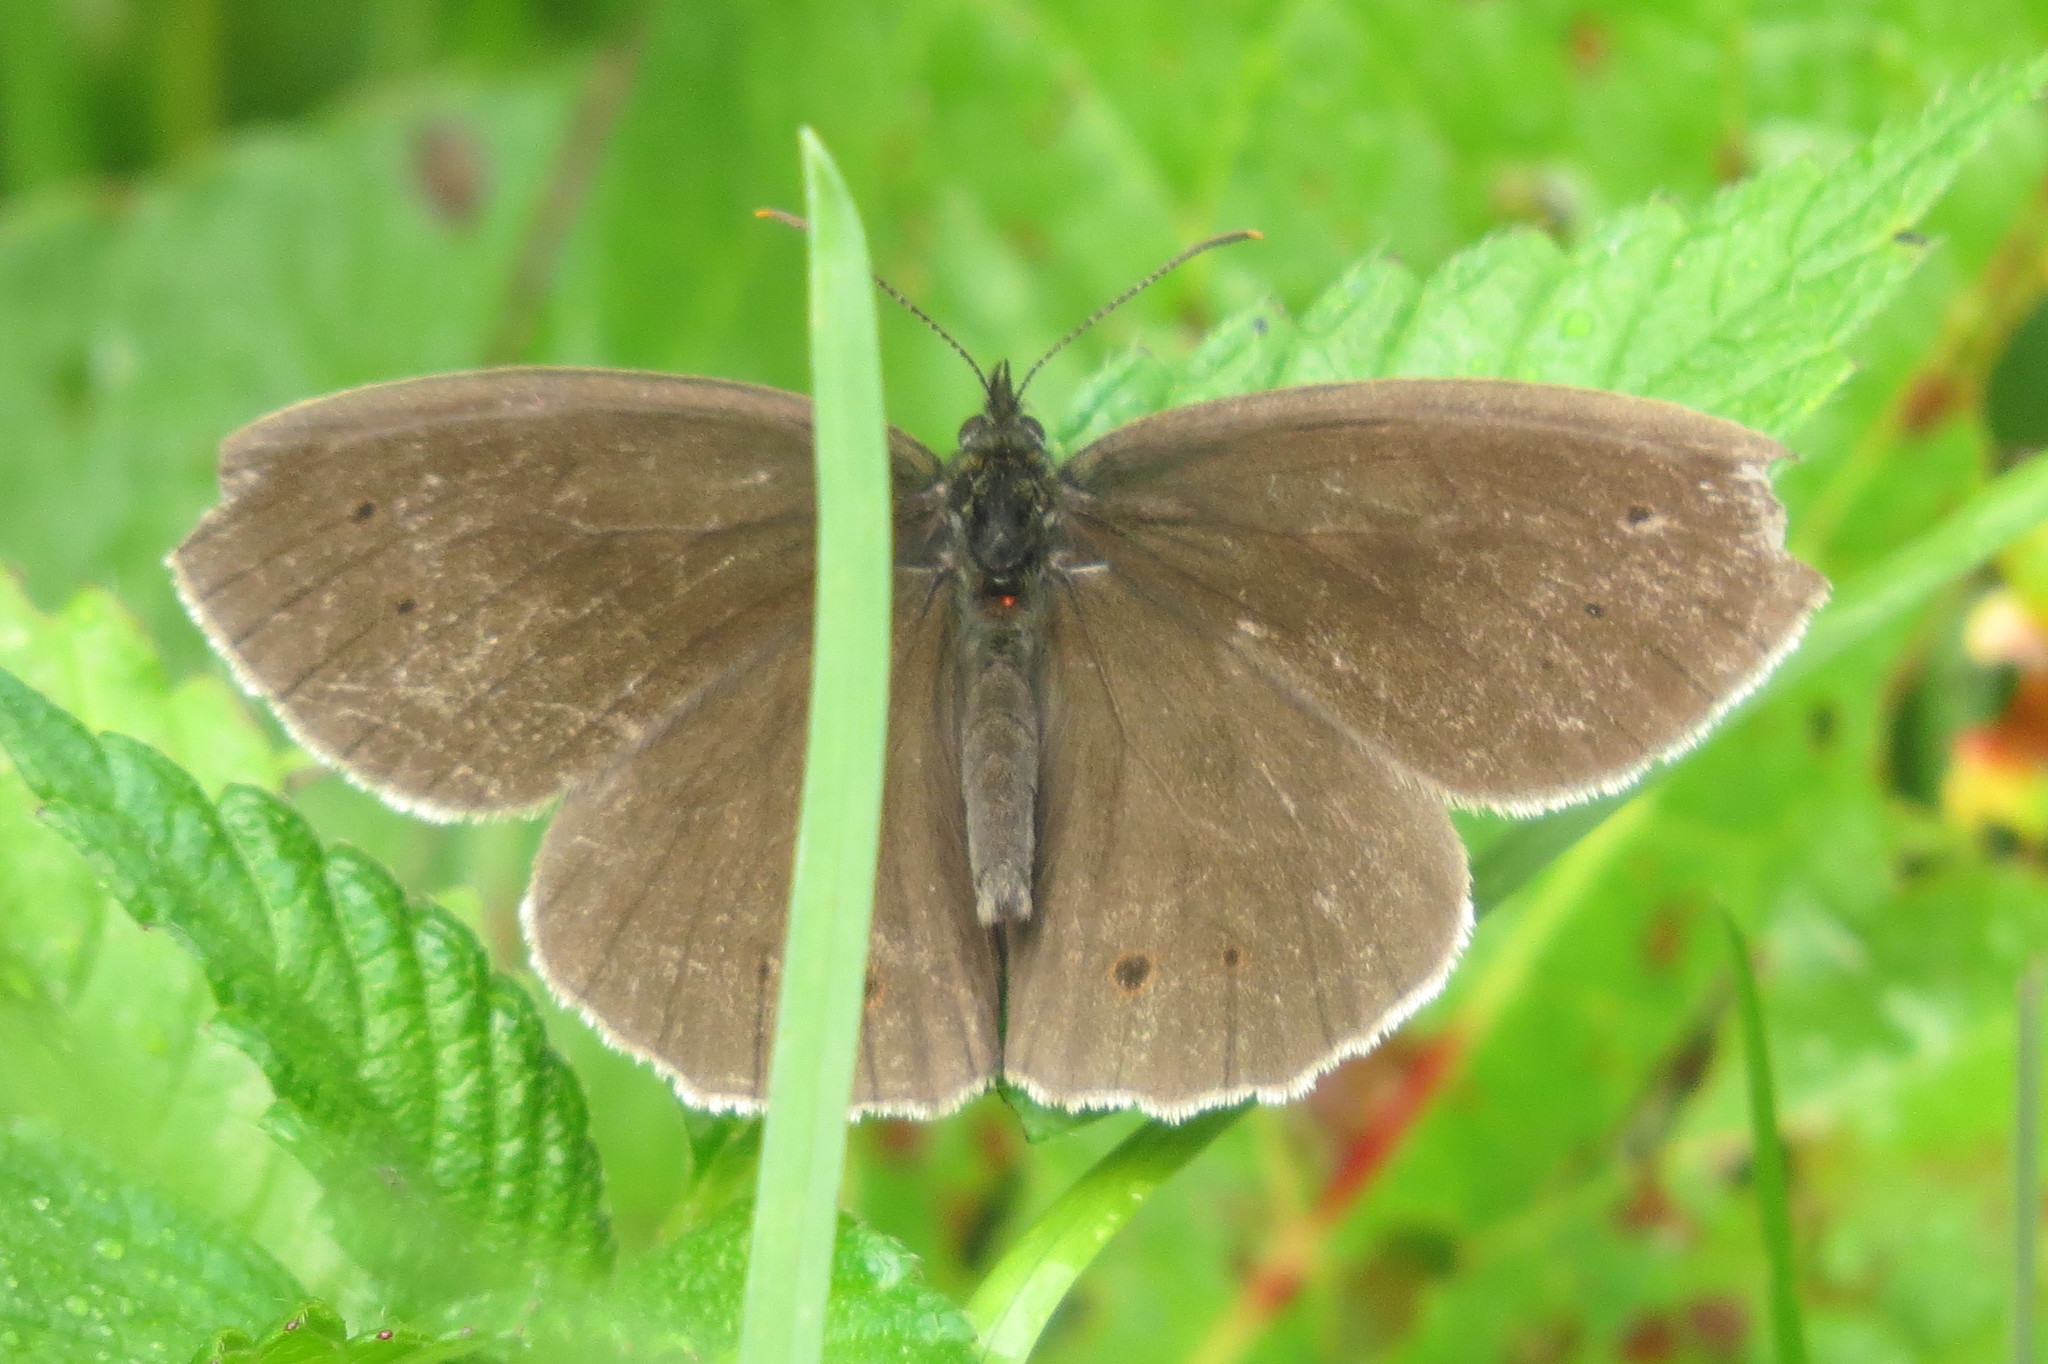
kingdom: Animalia
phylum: Arthropoda
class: Insecta
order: Lepidoptera
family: Nymphalidae
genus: Aphantopus
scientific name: Aphantopus hyperantus
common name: Ringlet
